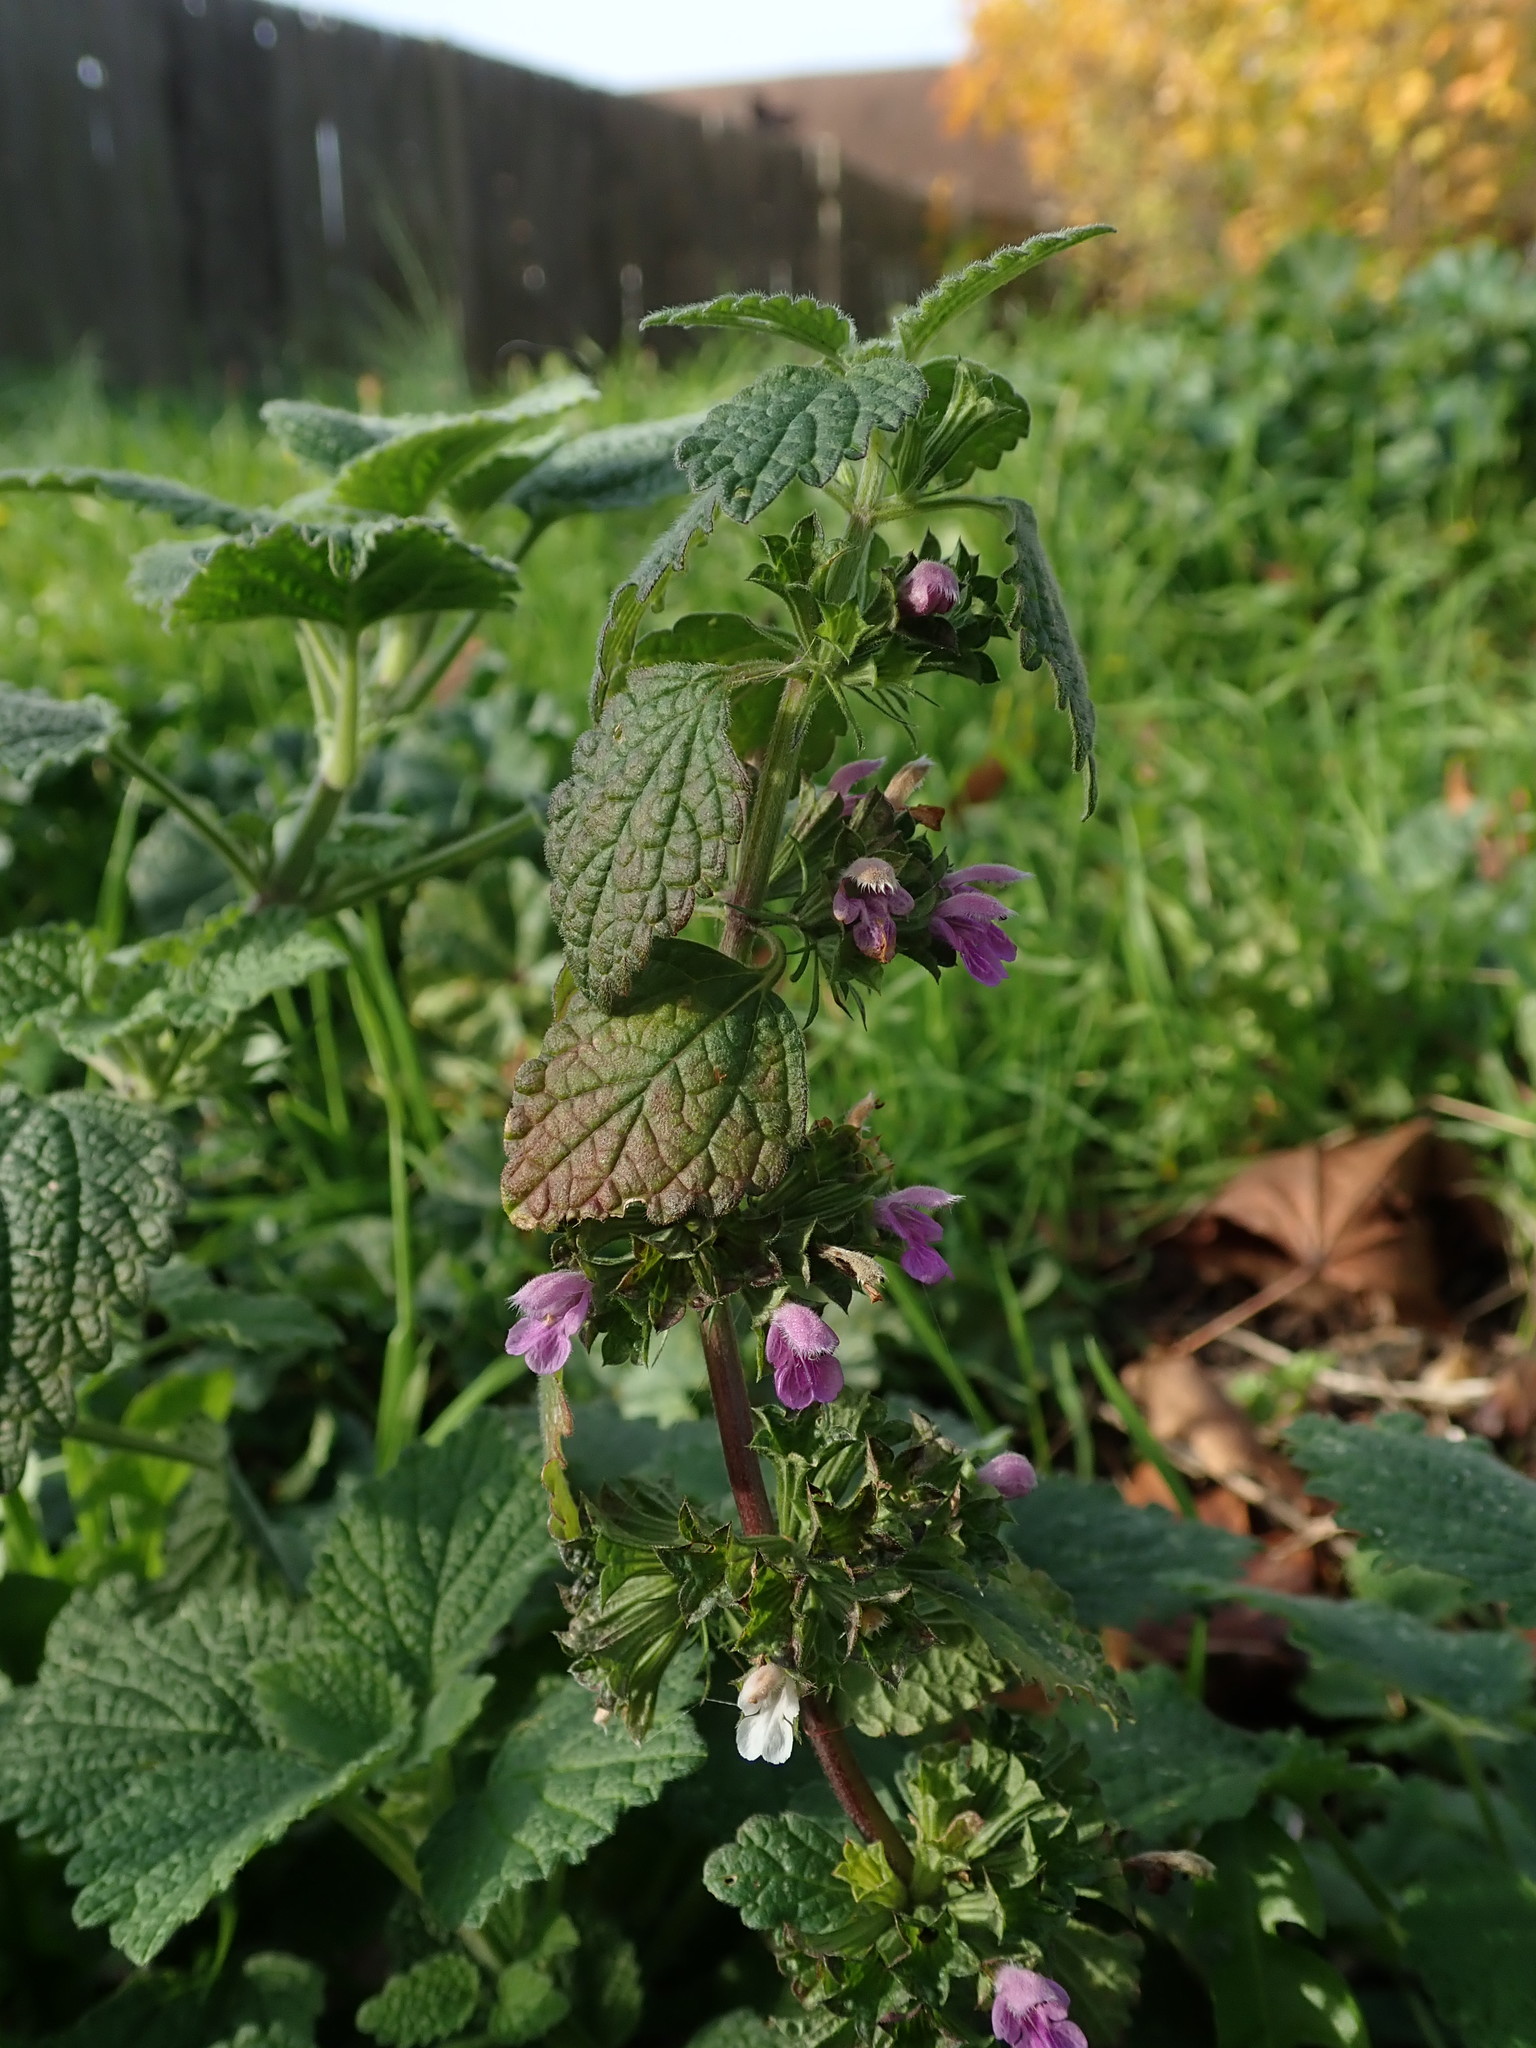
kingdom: Plantae
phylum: Tracheophyta
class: Magnoliopsida
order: Lamiales
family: Lamiaceae
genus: Ballota
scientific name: Ballota nigra
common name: Black horehound
